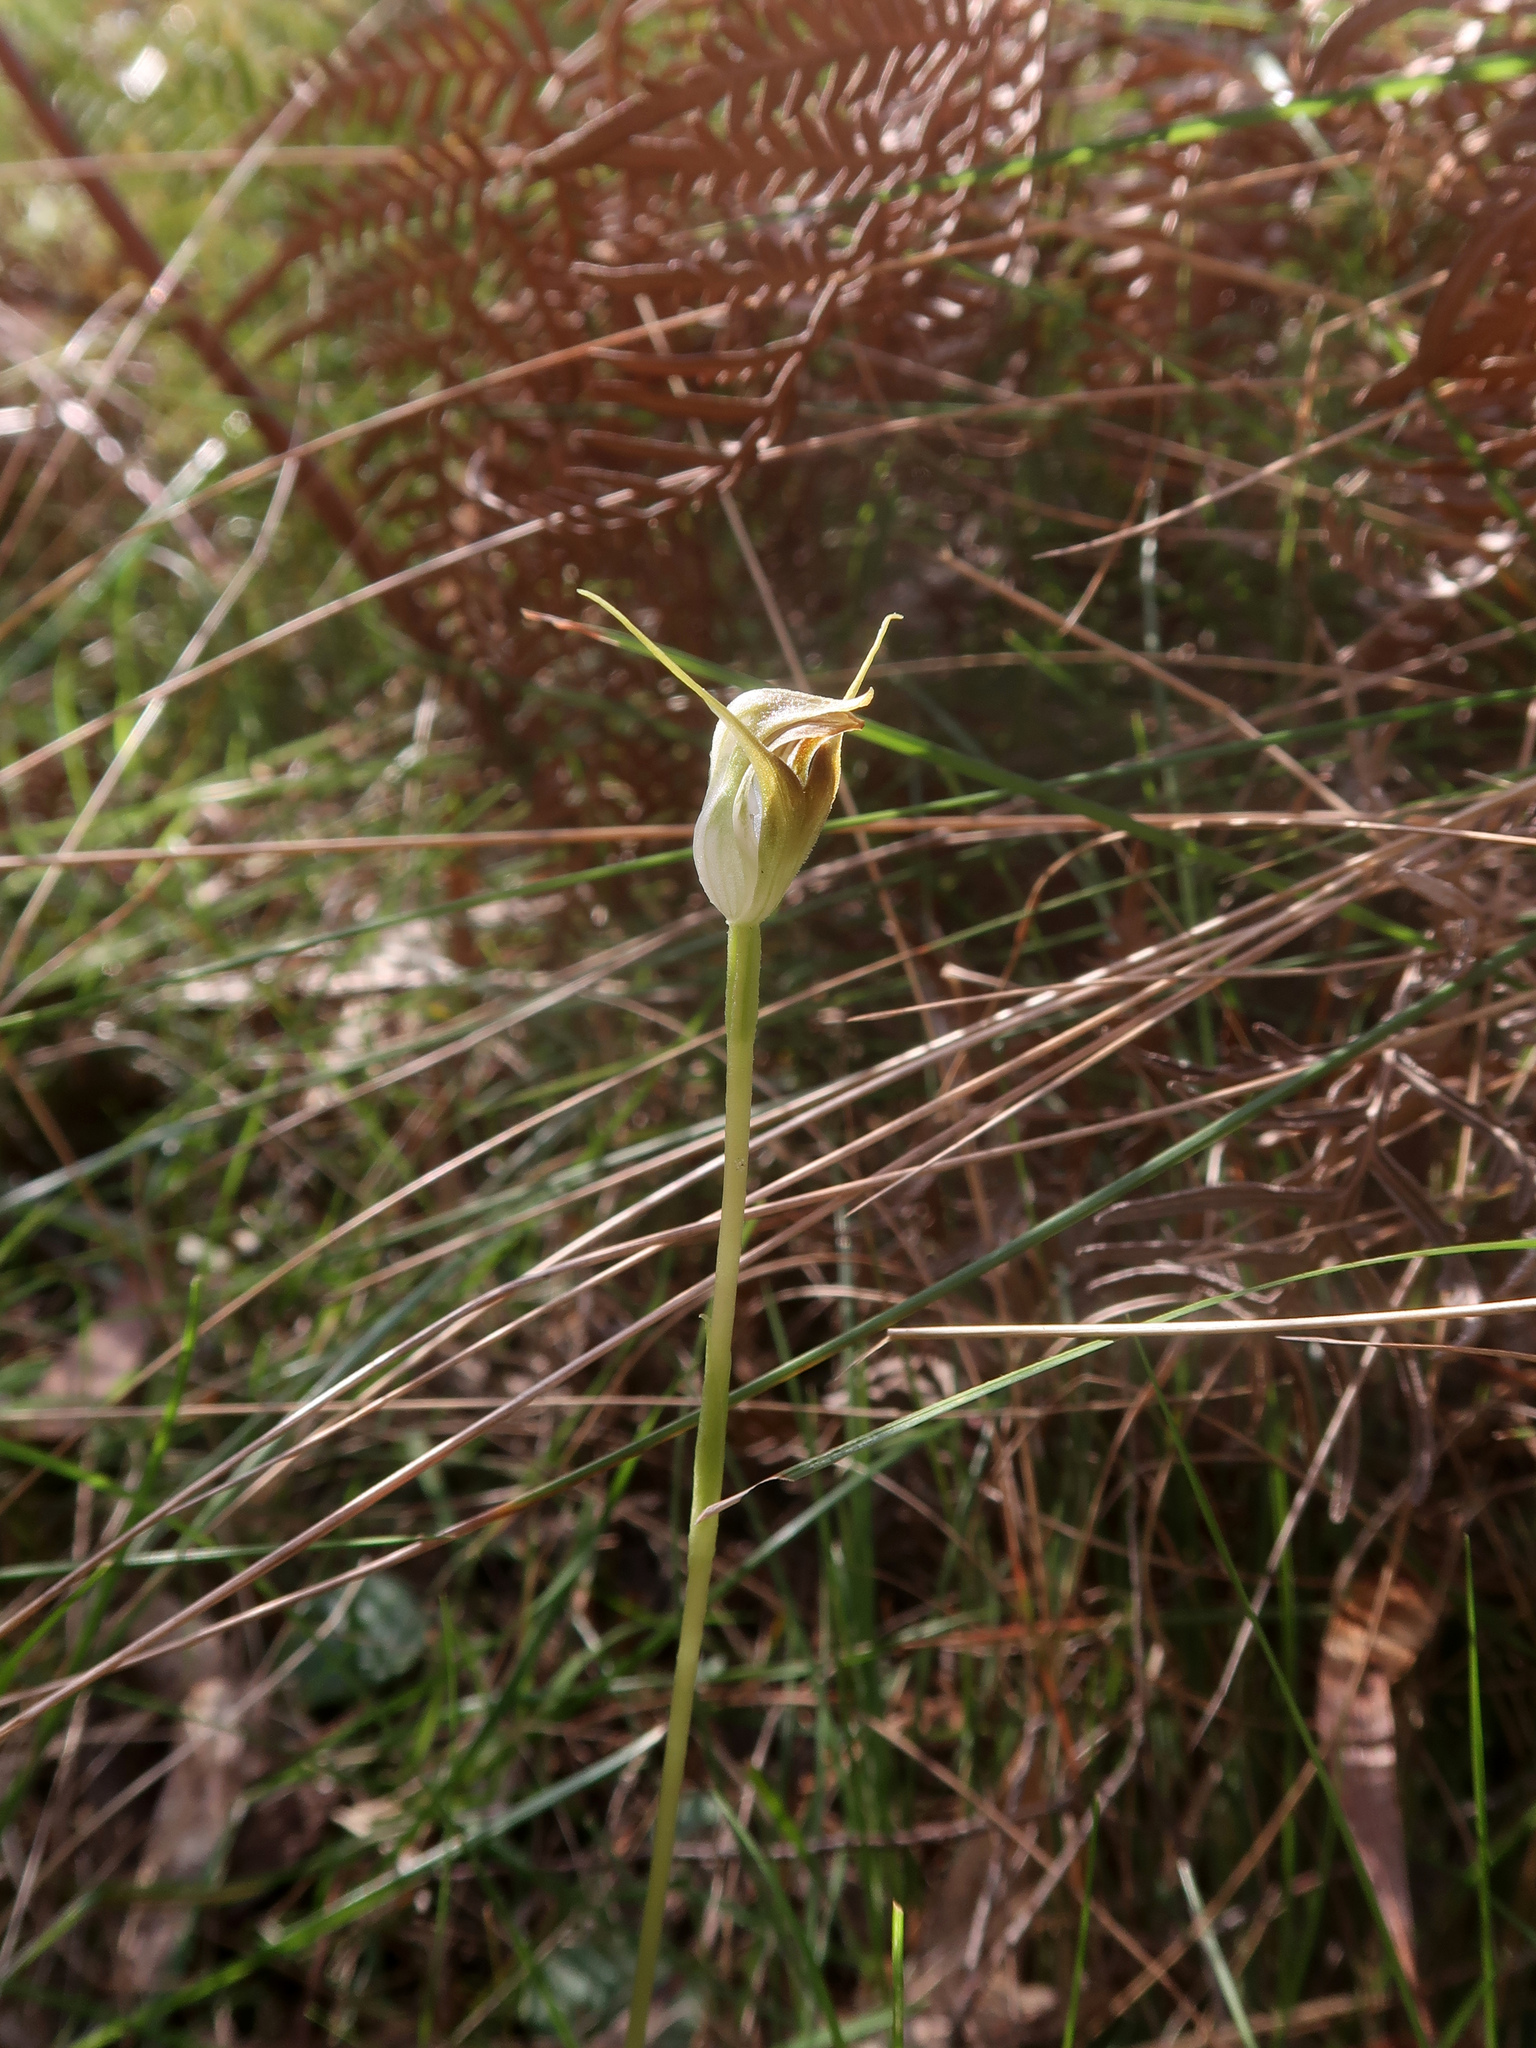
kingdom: Plantae
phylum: Tracheophyta
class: Liliopsida
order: Asparagales
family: Orchidaceae
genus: Pterostylis
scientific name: Pterostylis pedunculata
